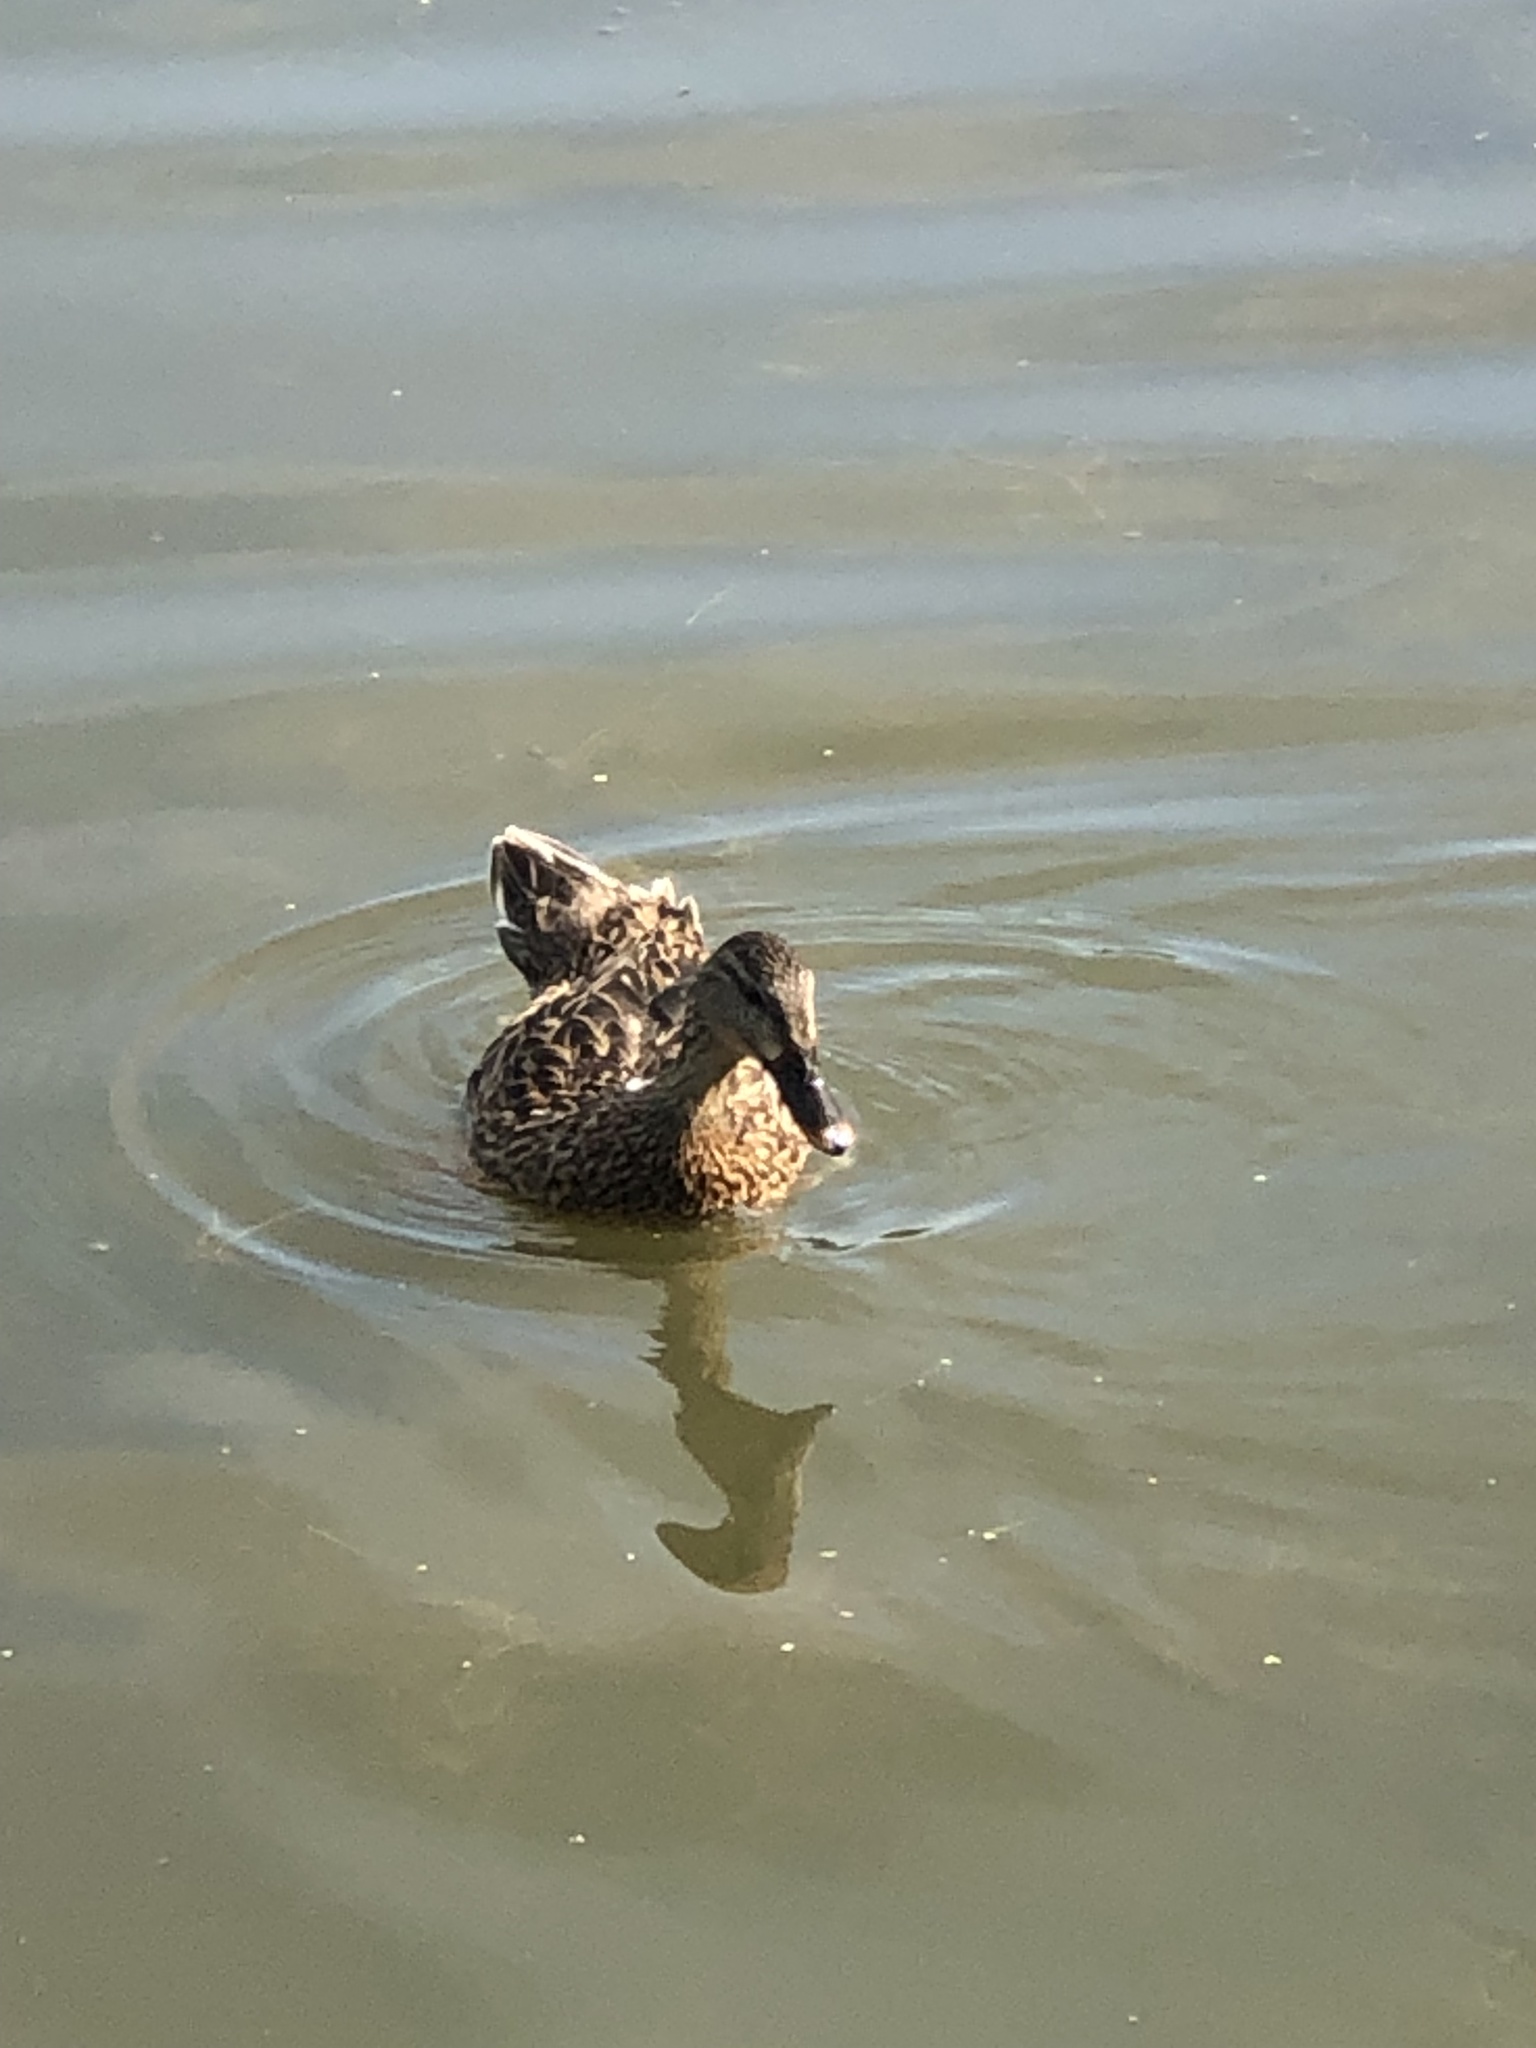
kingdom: Animalia
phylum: Chordata
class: Aves
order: Anseriformes
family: Anatidae
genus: Anas
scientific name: Anas platyrhynchos
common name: Mallard
